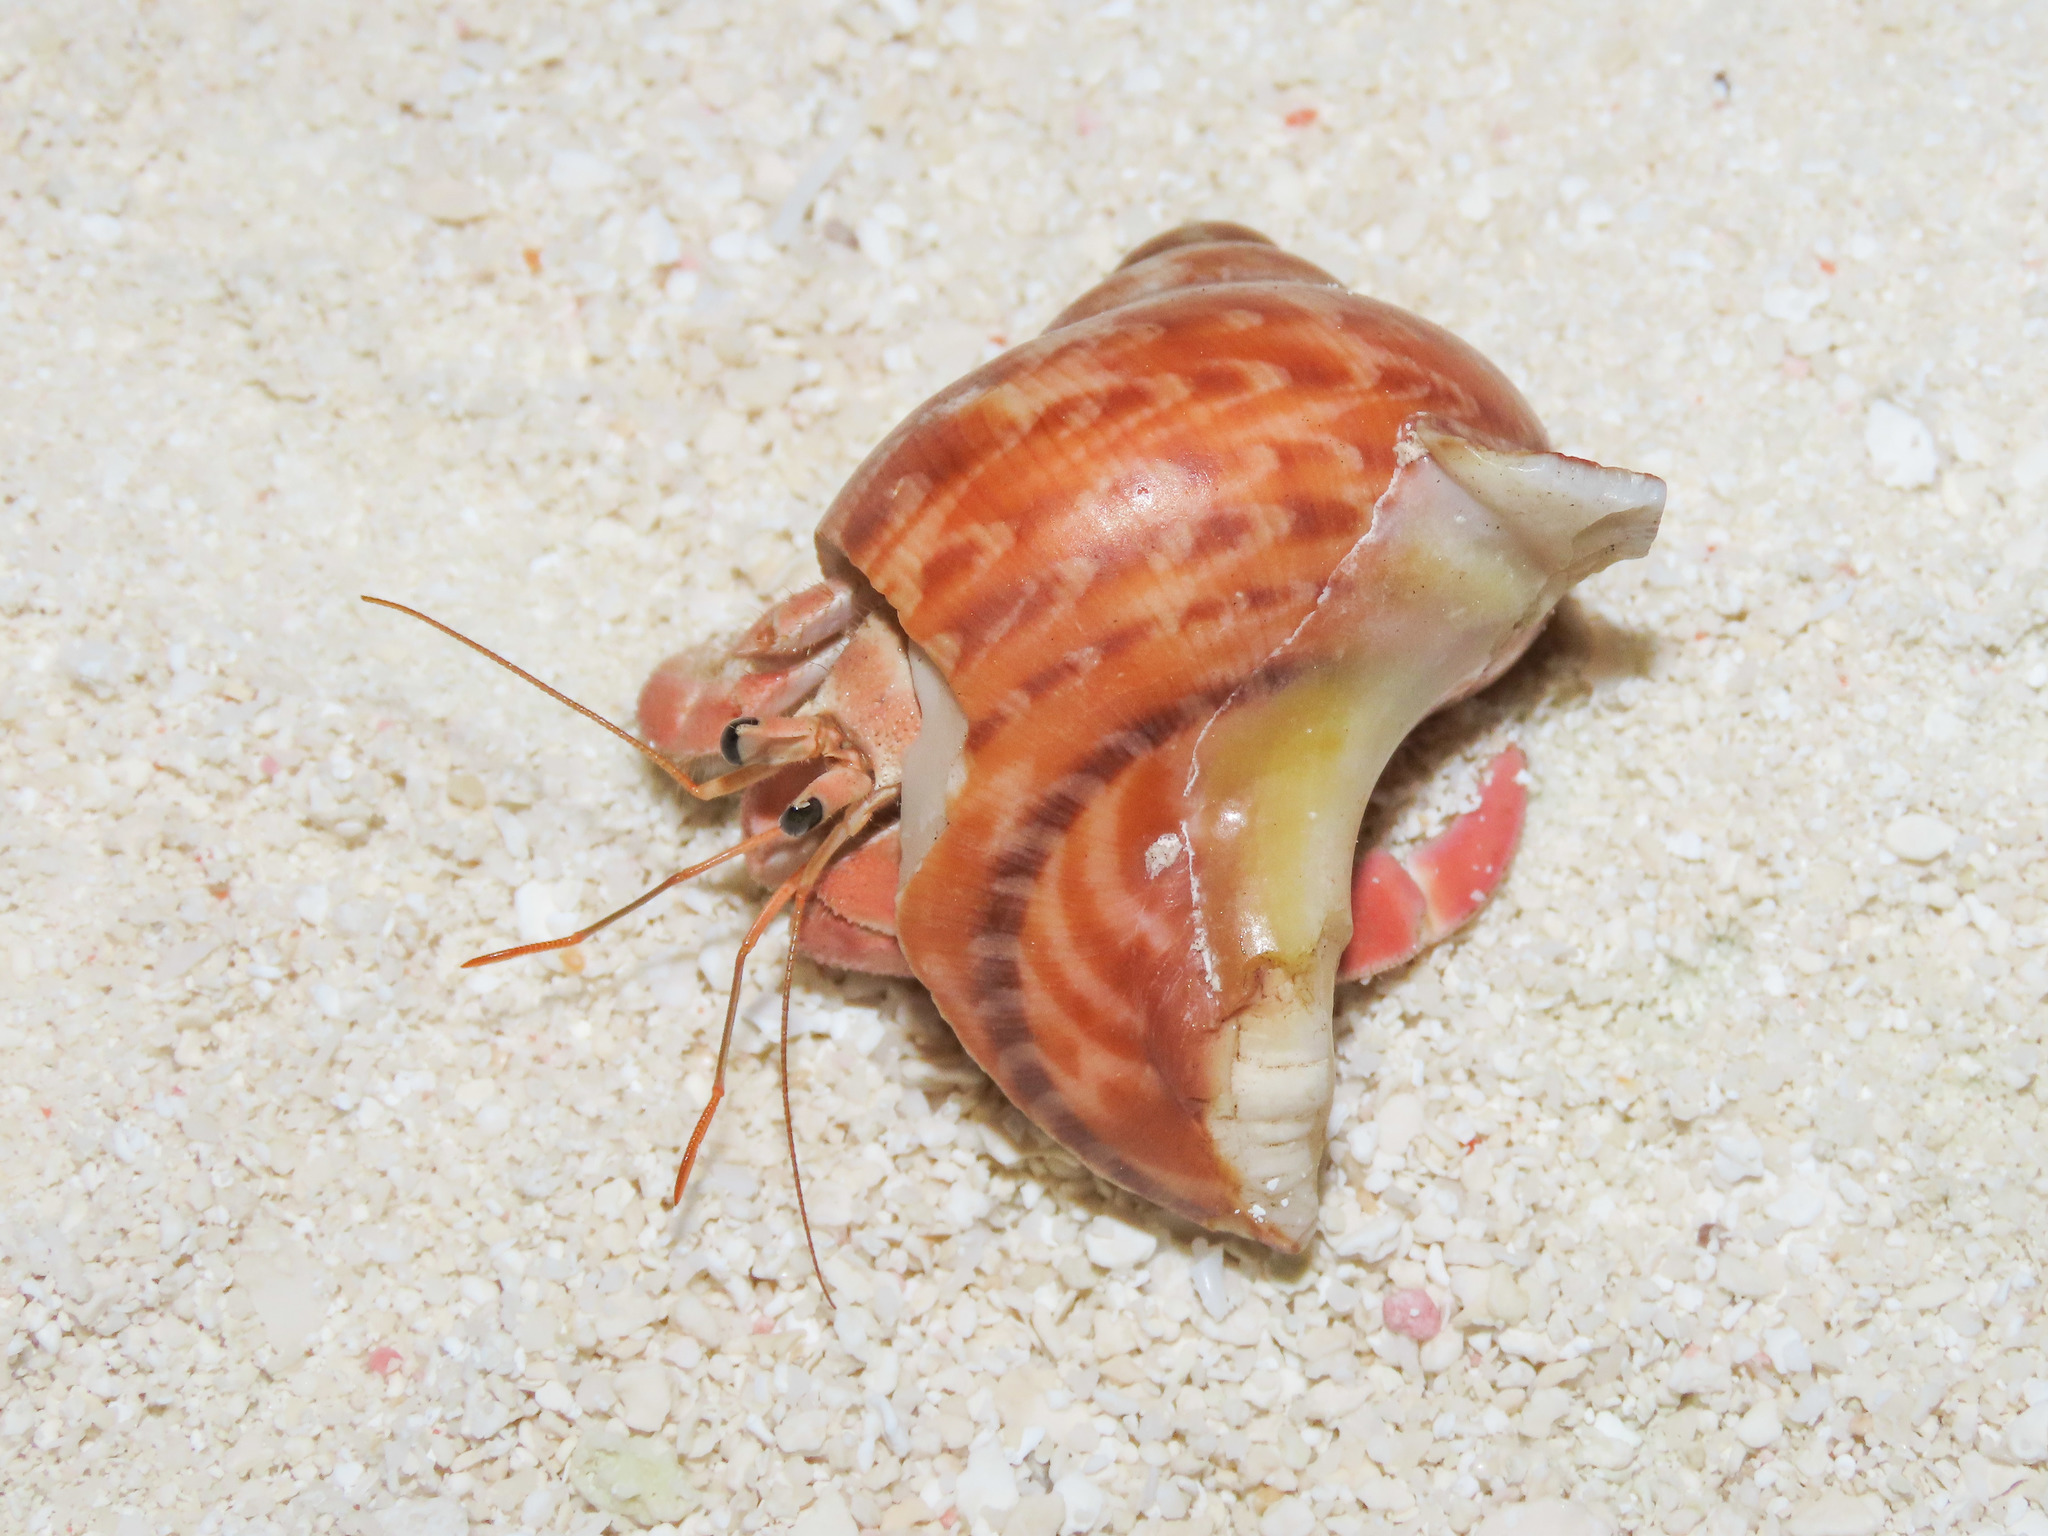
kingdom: Animalia
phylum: Mollusca
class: Gastropoda
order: Trochida
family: Turbinidae
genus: Turbo
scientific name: Turbo petholatus
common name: Cat's-eye shell
